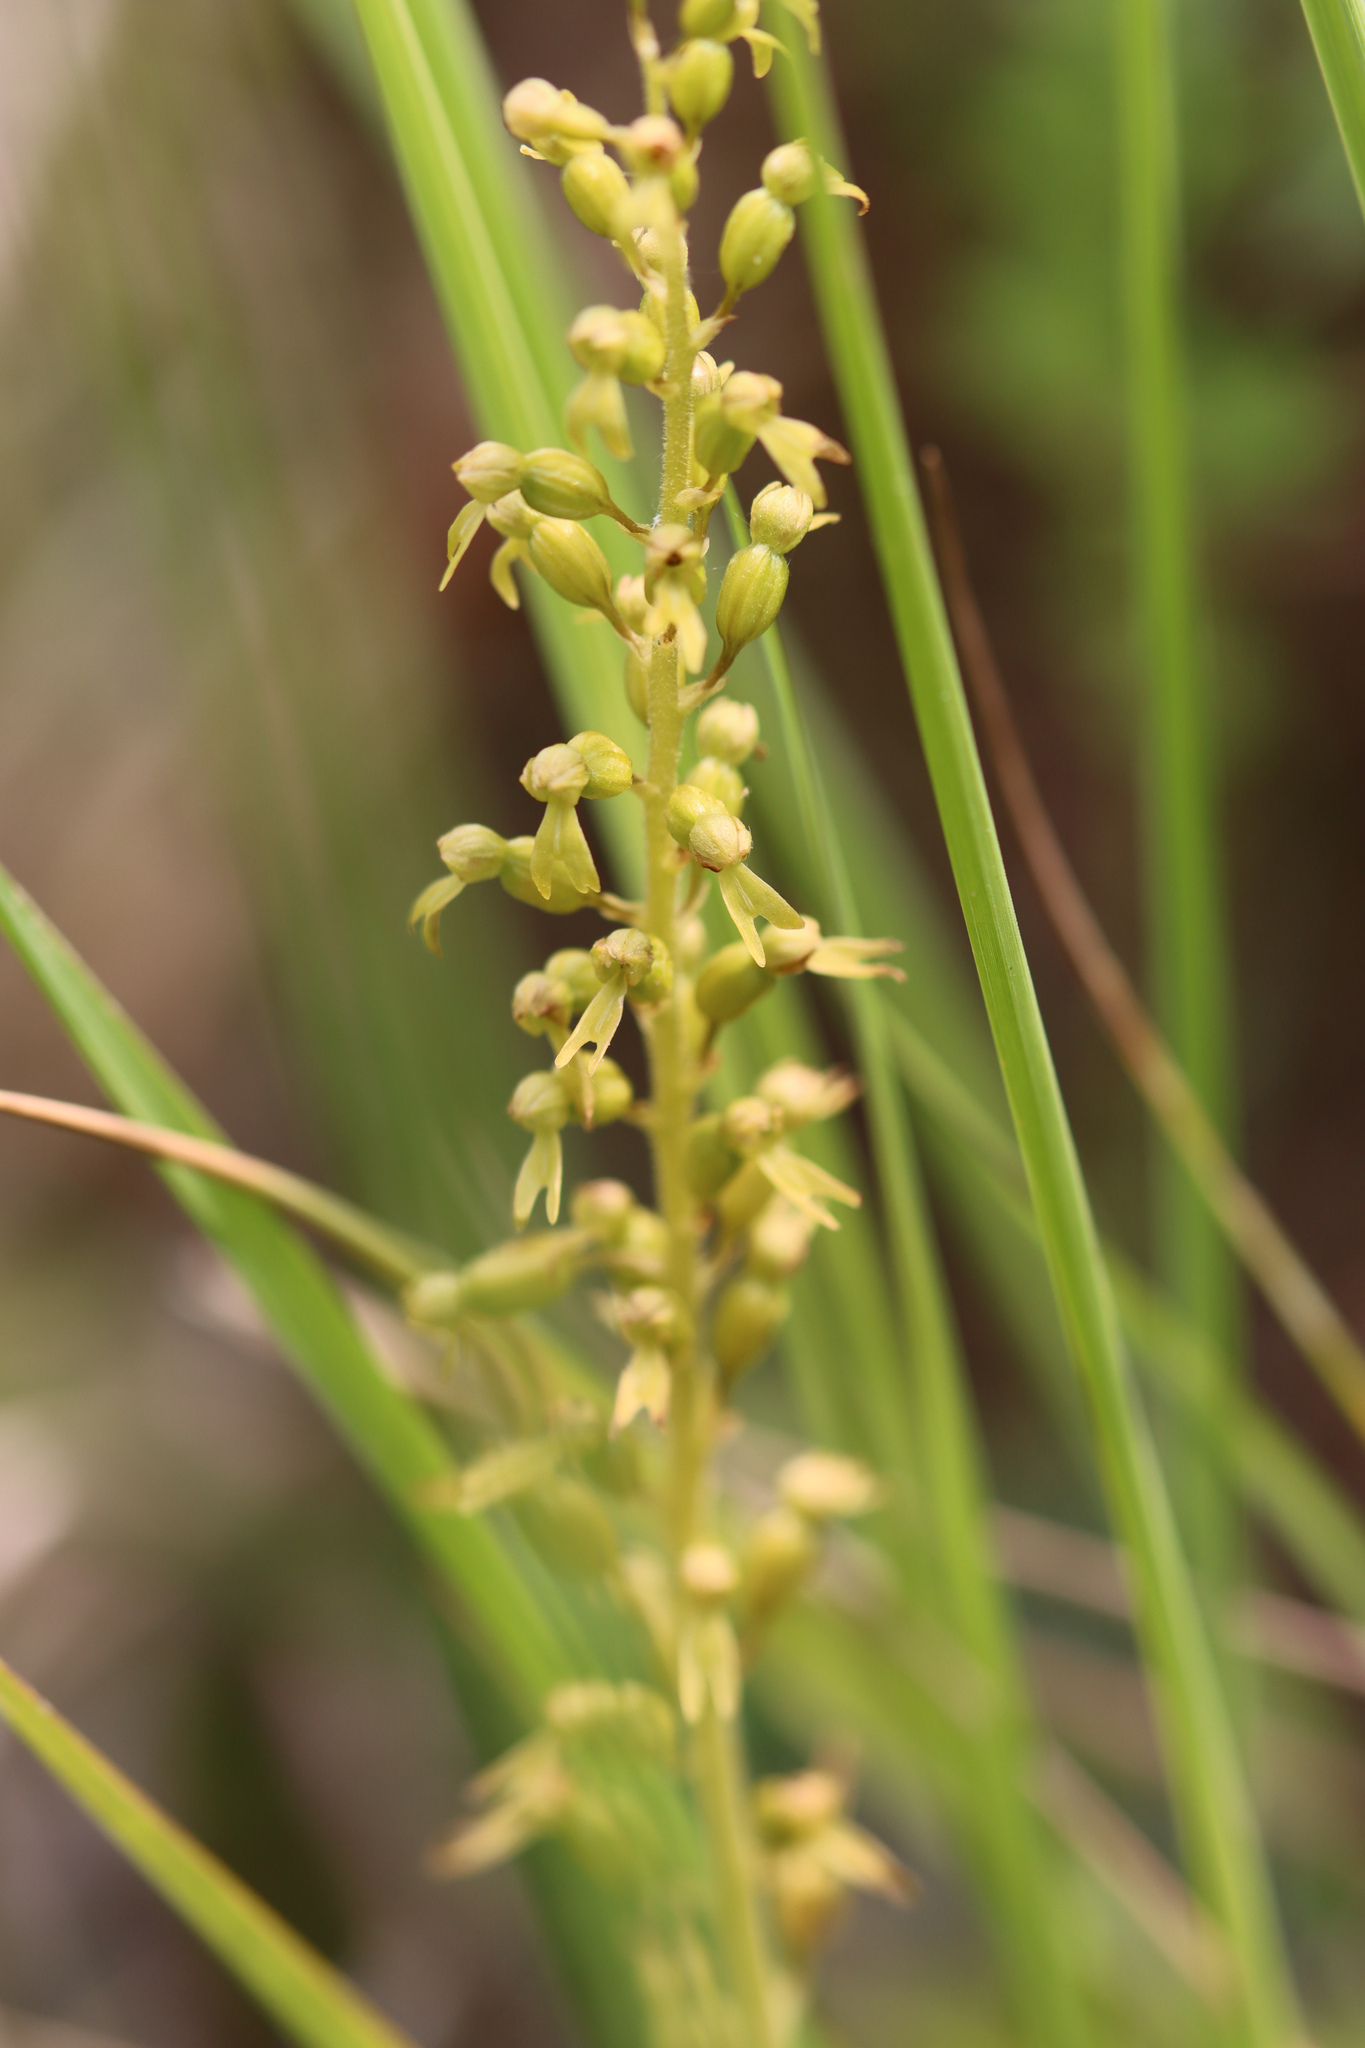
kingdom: Plantae
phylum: Tracheophyta
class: Liliopsida
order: Asparagales
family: Orchidaceae
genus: Neottia
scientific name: Neottia ovata
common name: Common twayblade
